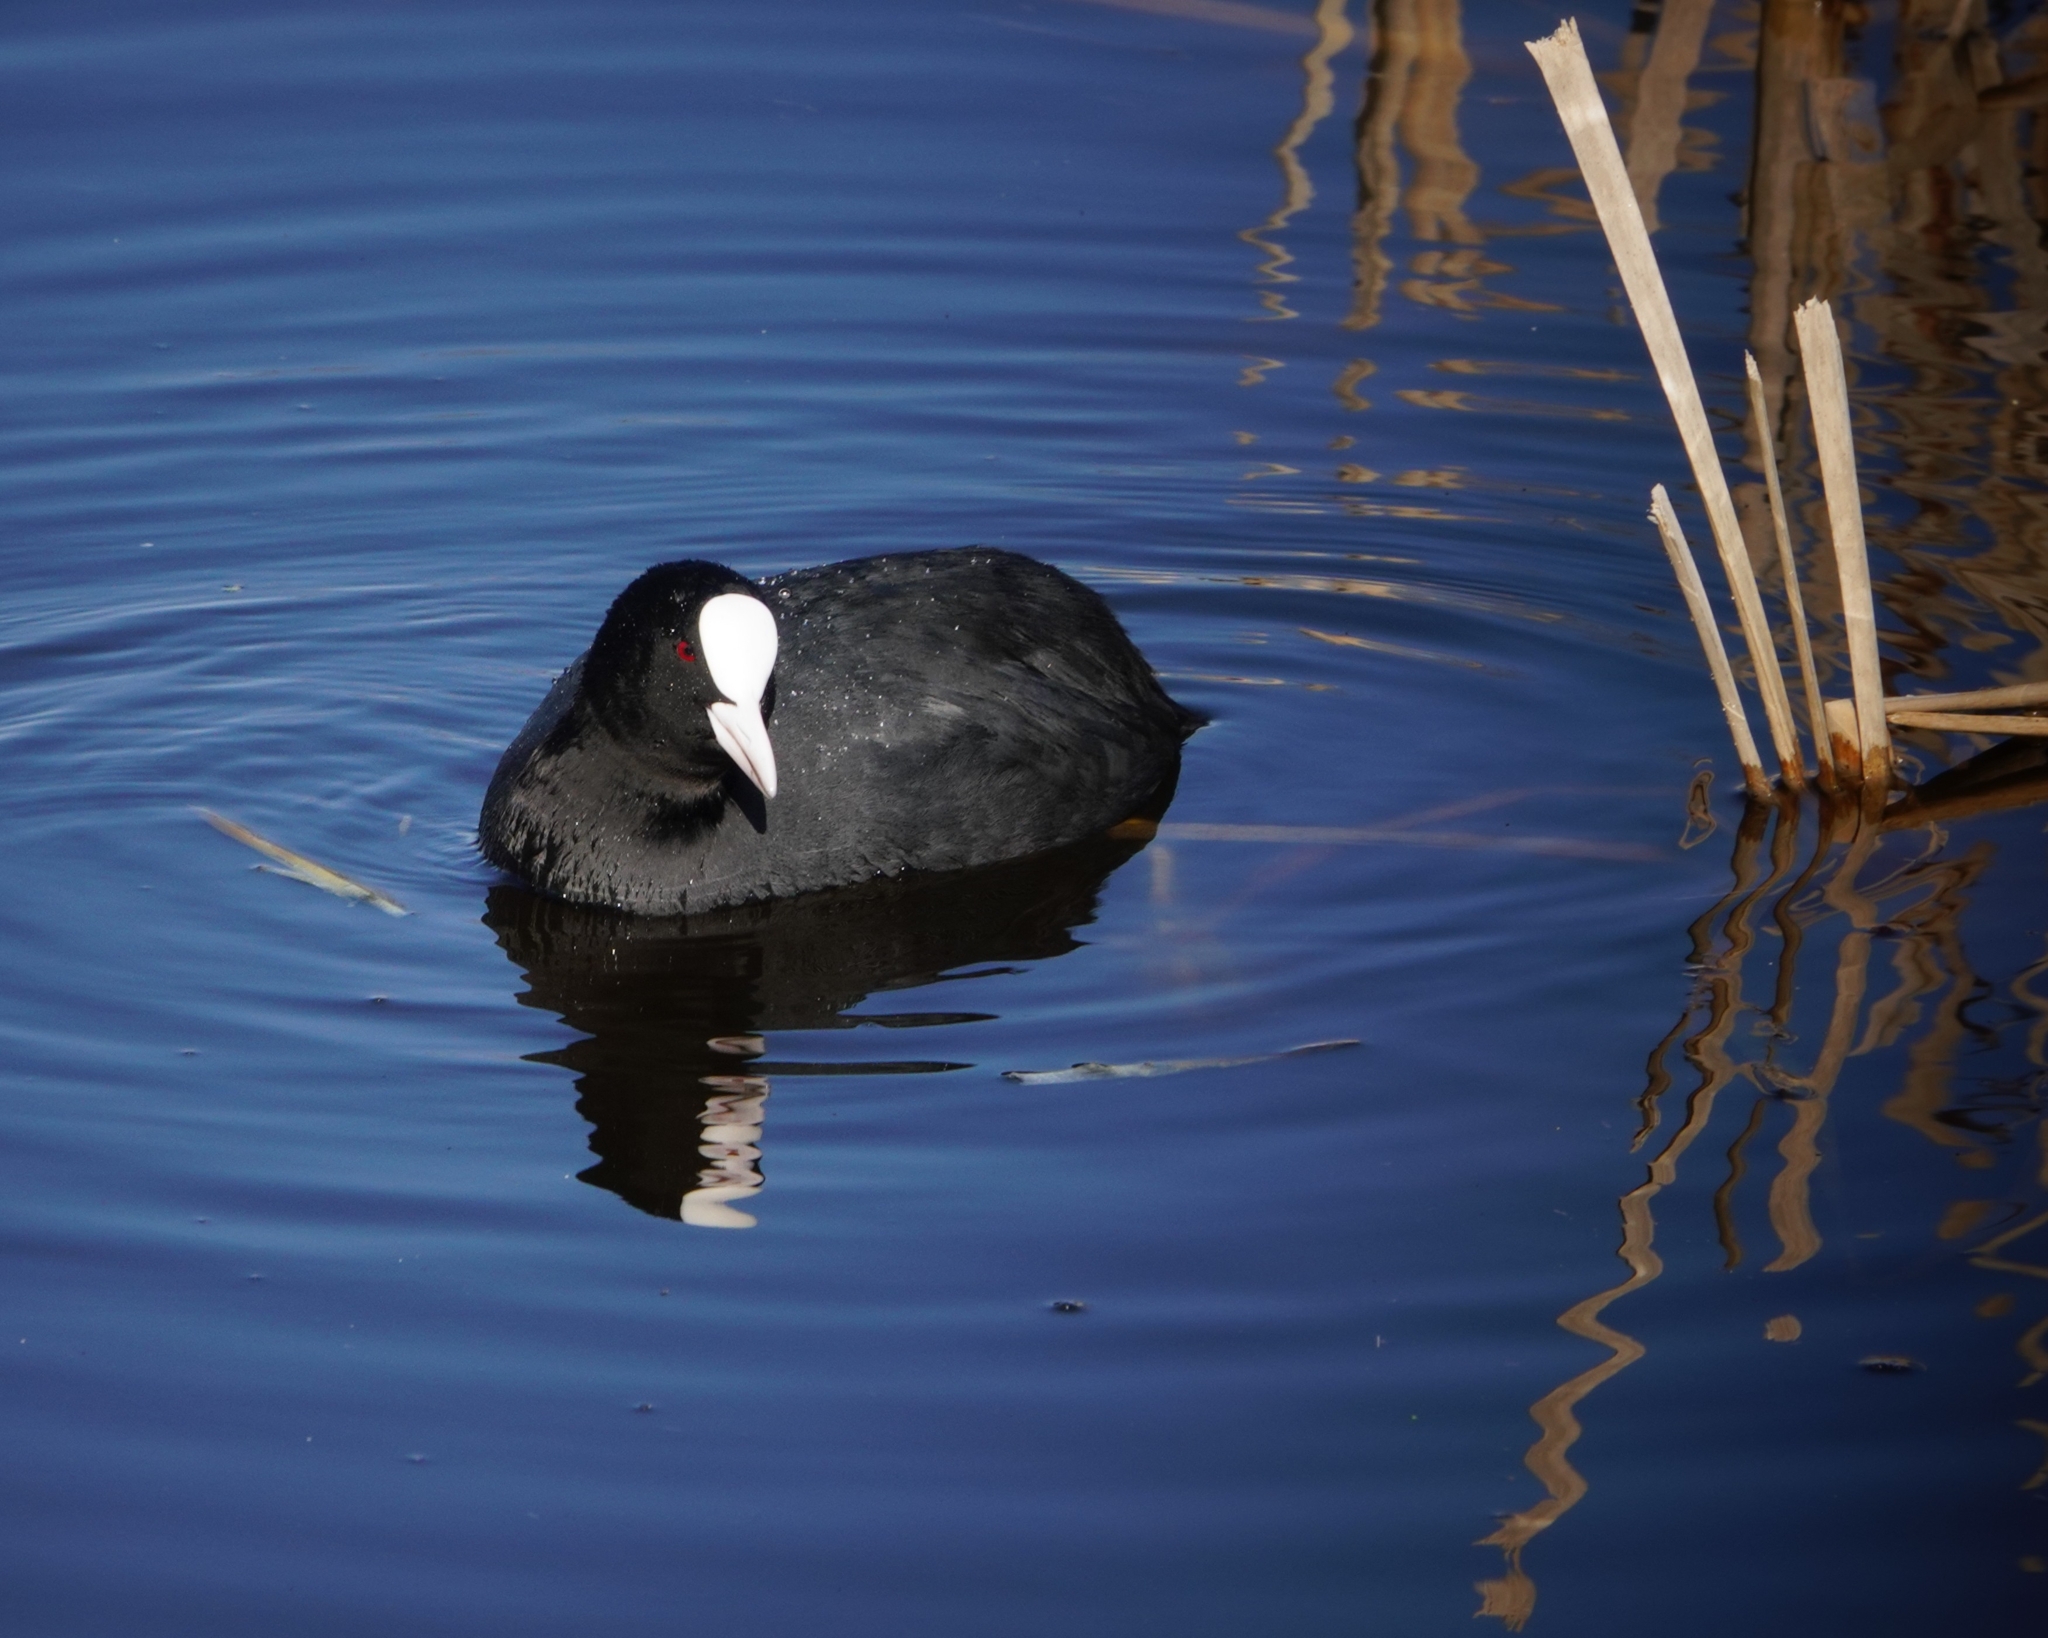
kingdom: Animalia
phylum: Chordata
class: Aves
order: Gruiformes
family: Rallidae
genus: Fulica
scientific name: Fulica atra
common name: Eurasian coot
